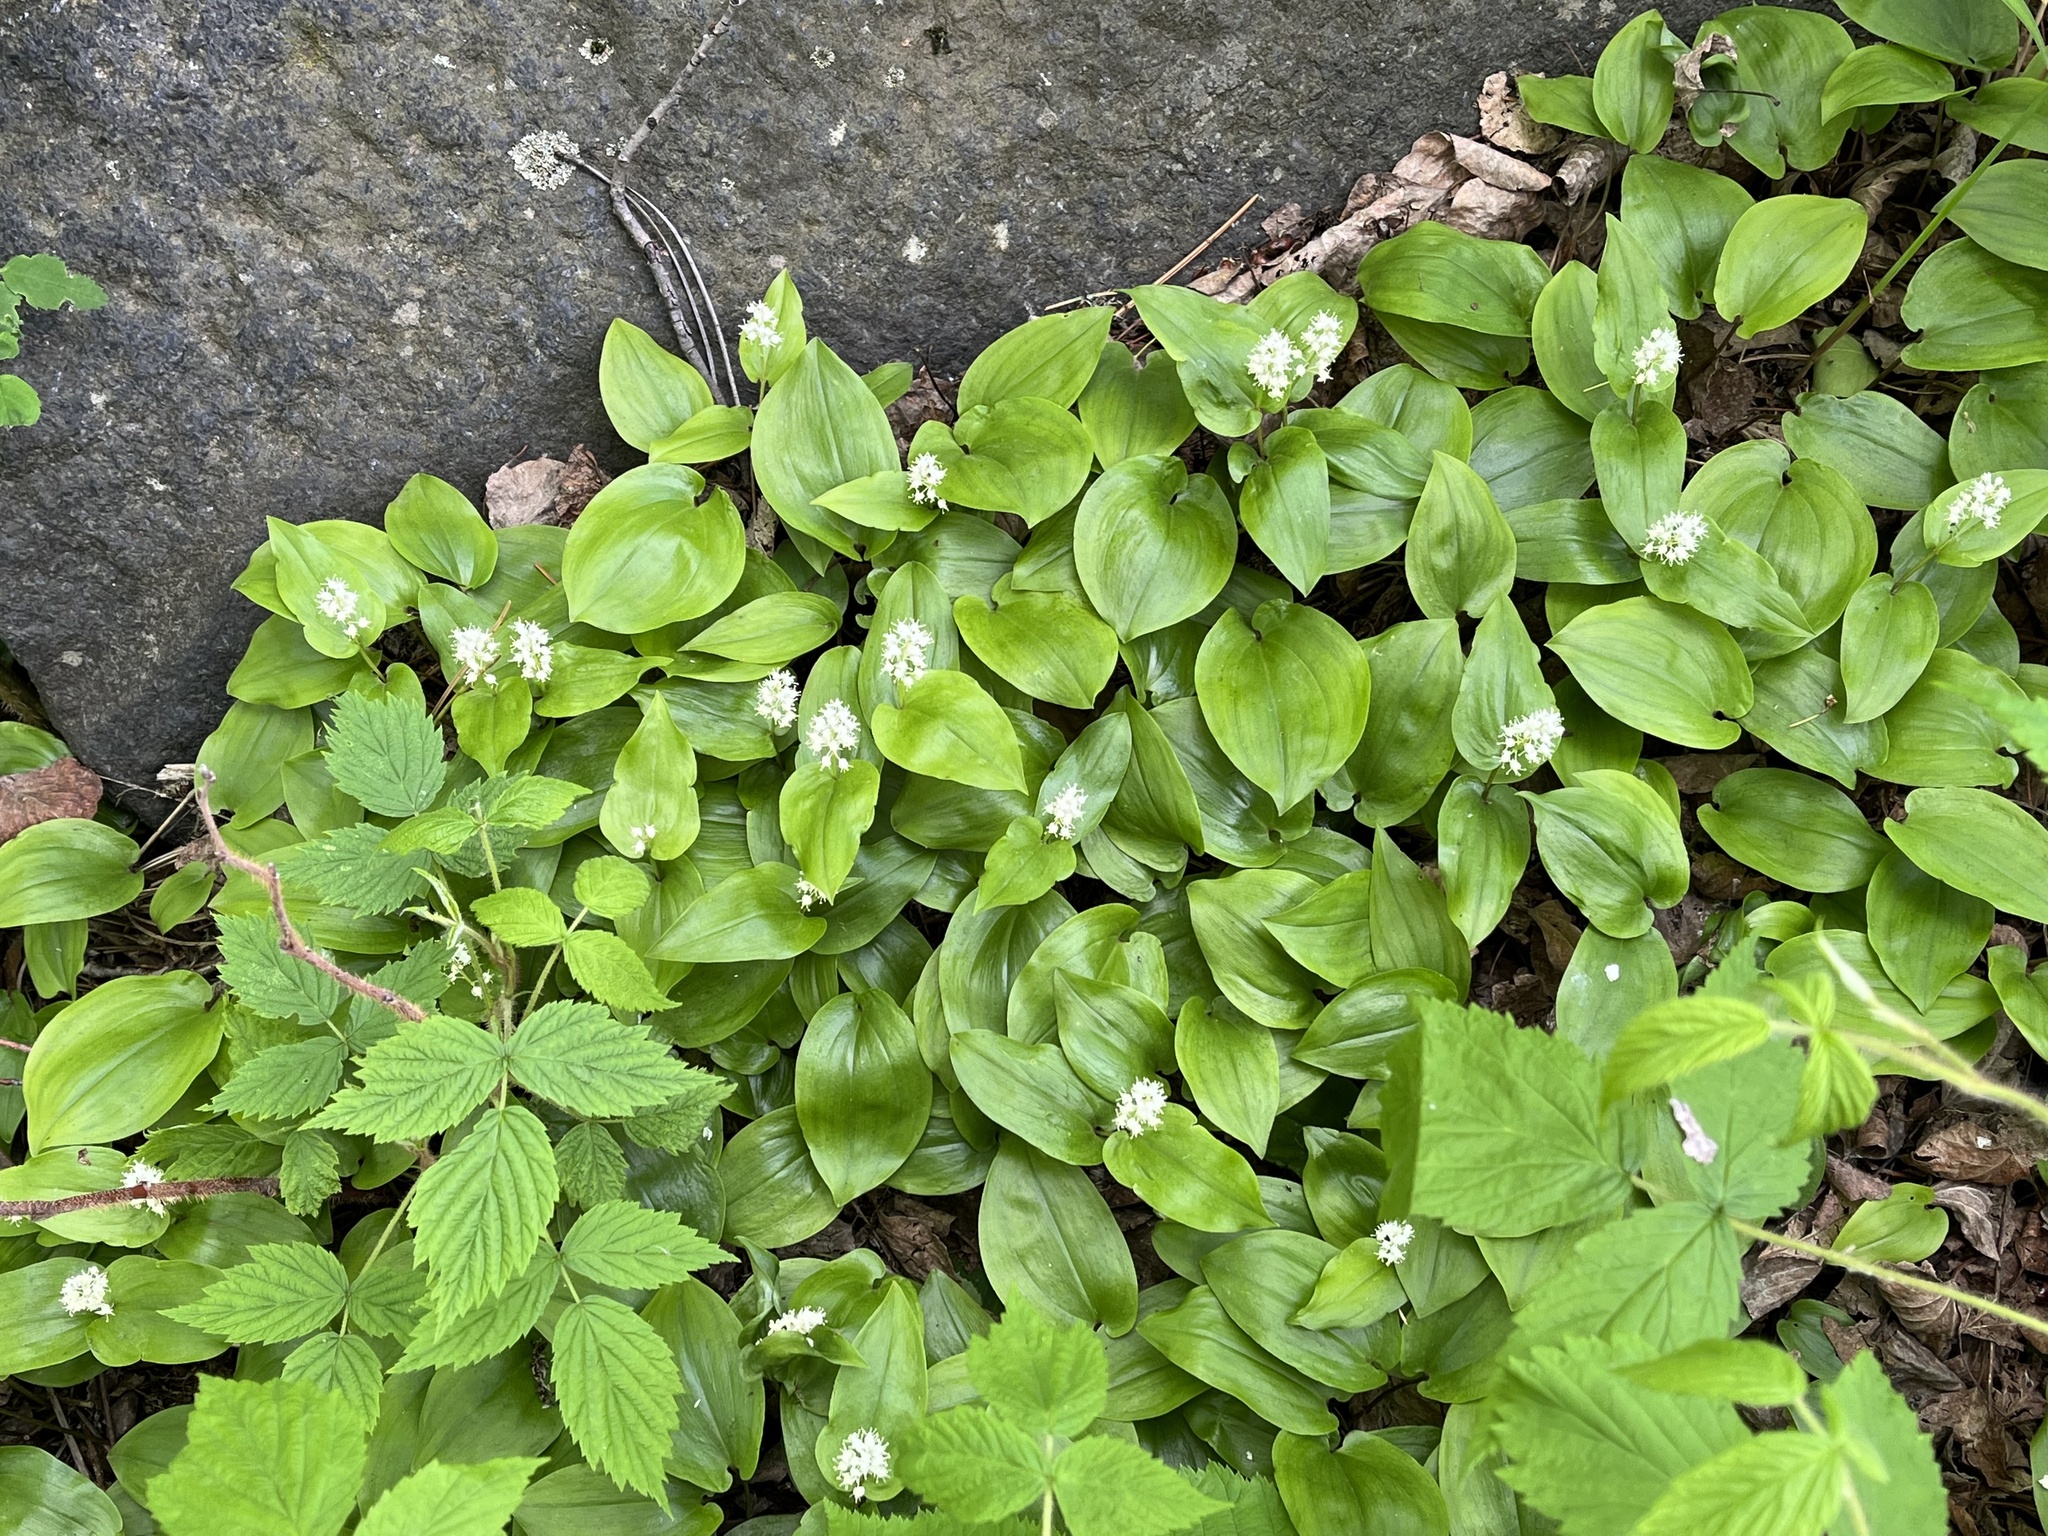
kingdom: Plantae
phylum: Tracheophyta
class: Liliopsida
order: Asparagales
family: Asparagaceae
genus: Maianthemum
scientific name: Maianthemum canadense
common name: False lily-of-the-valley
